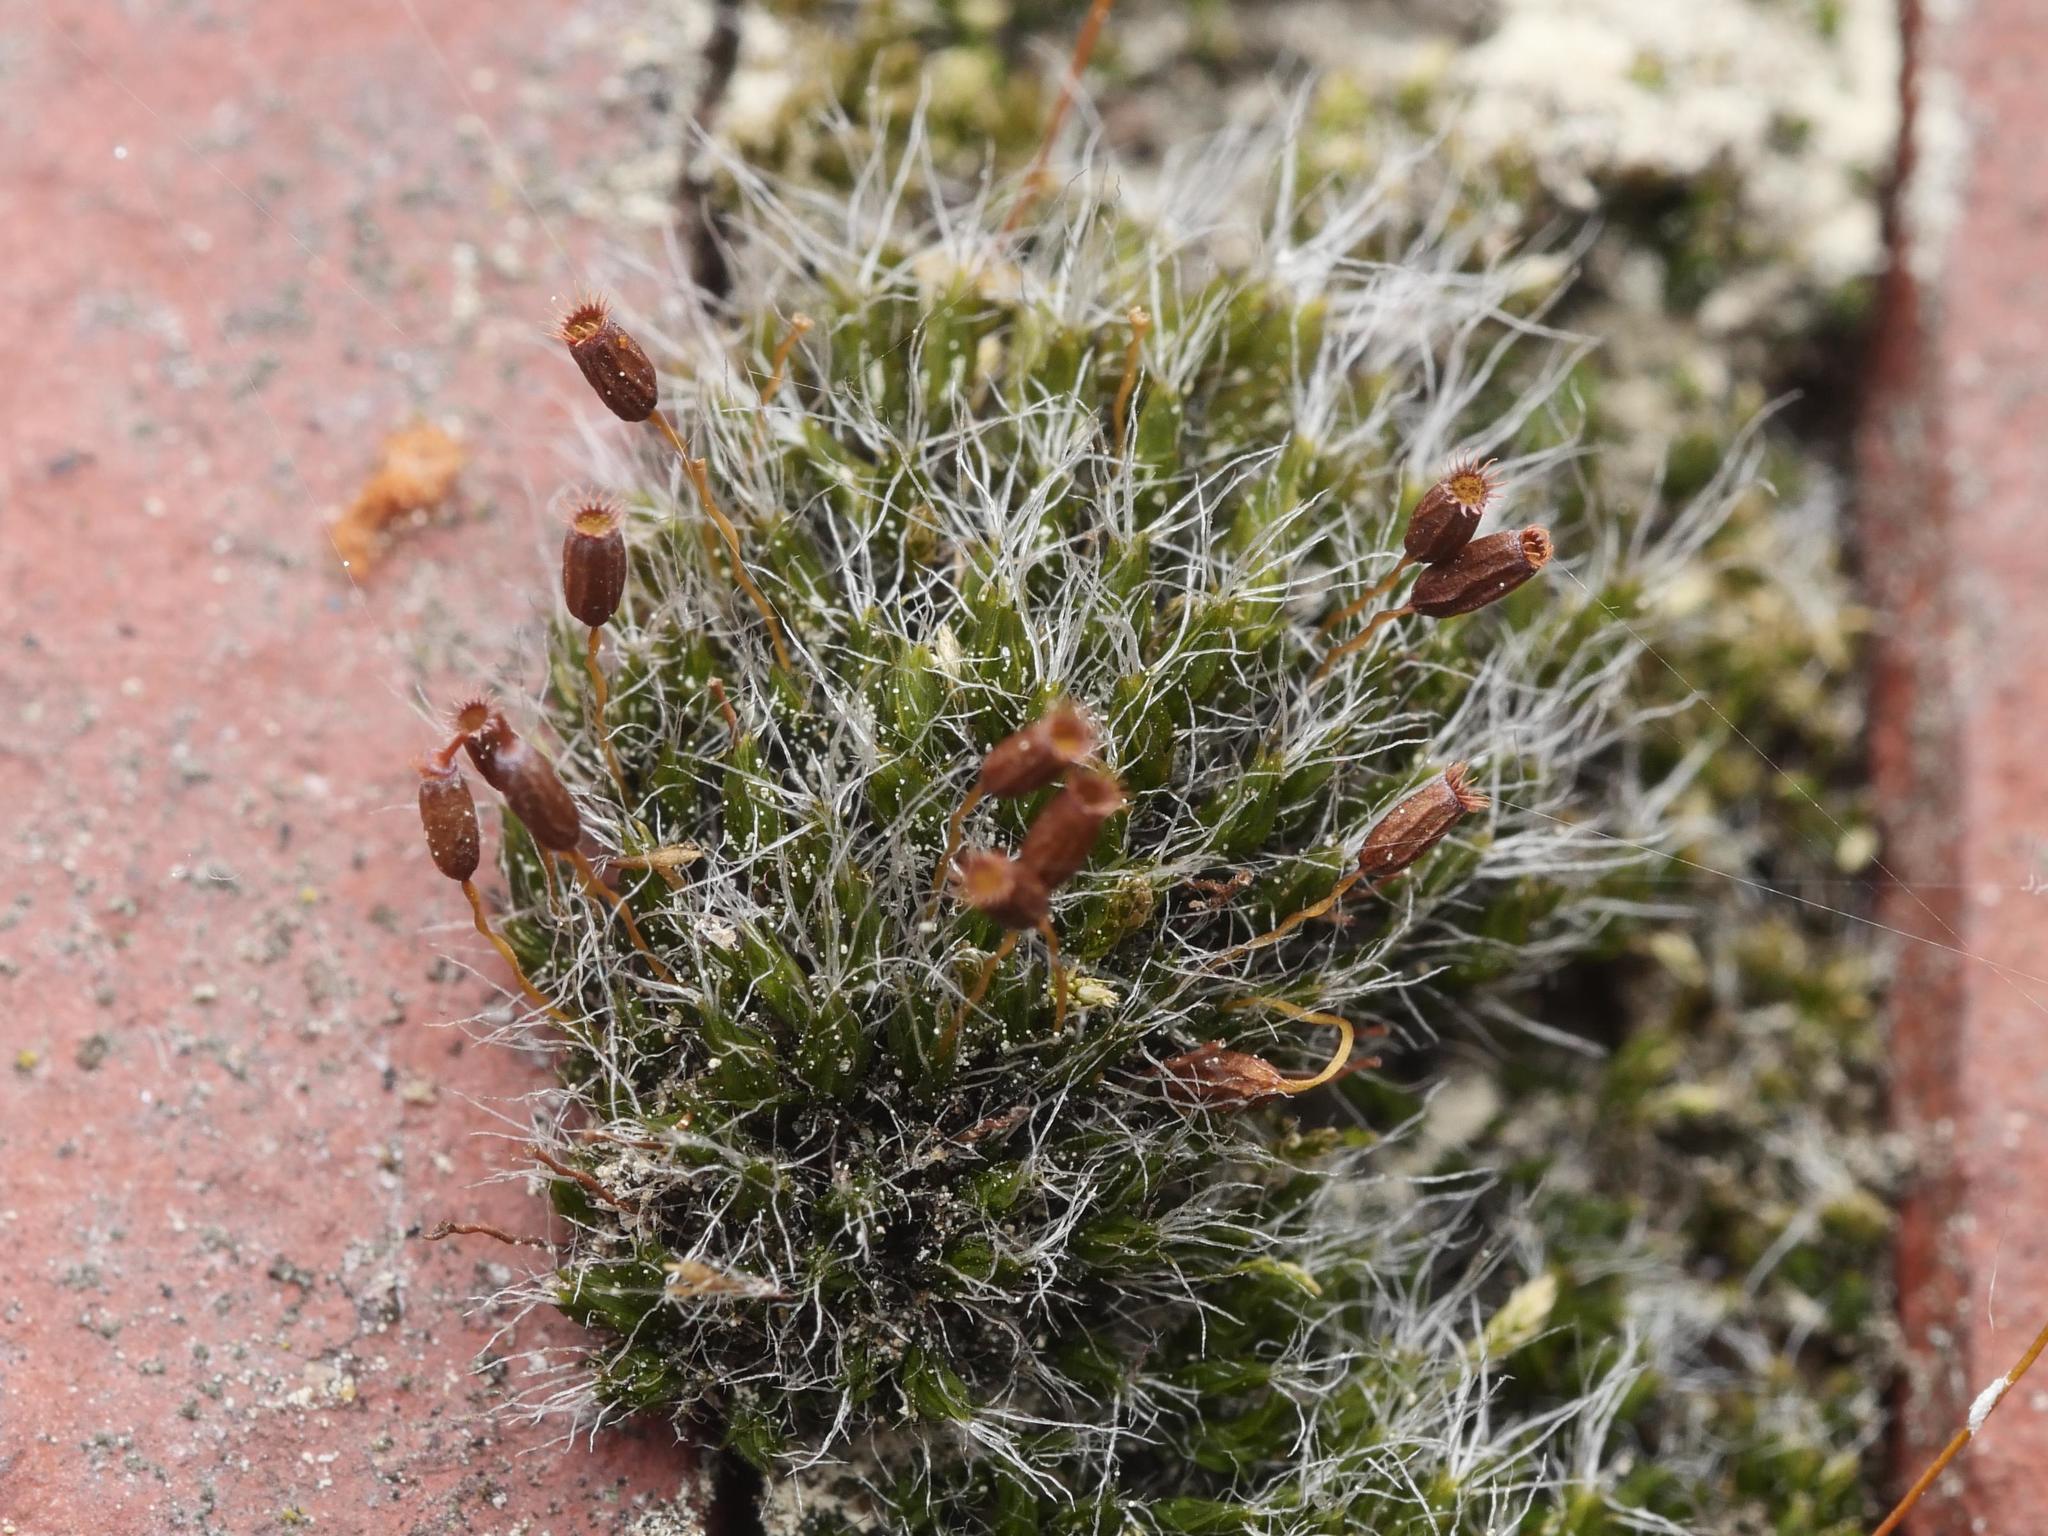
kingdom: Plantae
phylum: Bryophyta
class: Bryopsida
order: Grimmiales
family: Grimmiaceae
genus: Grimmia
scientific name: Grimmia pulvinata
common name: Grey-cushioned grimmia
